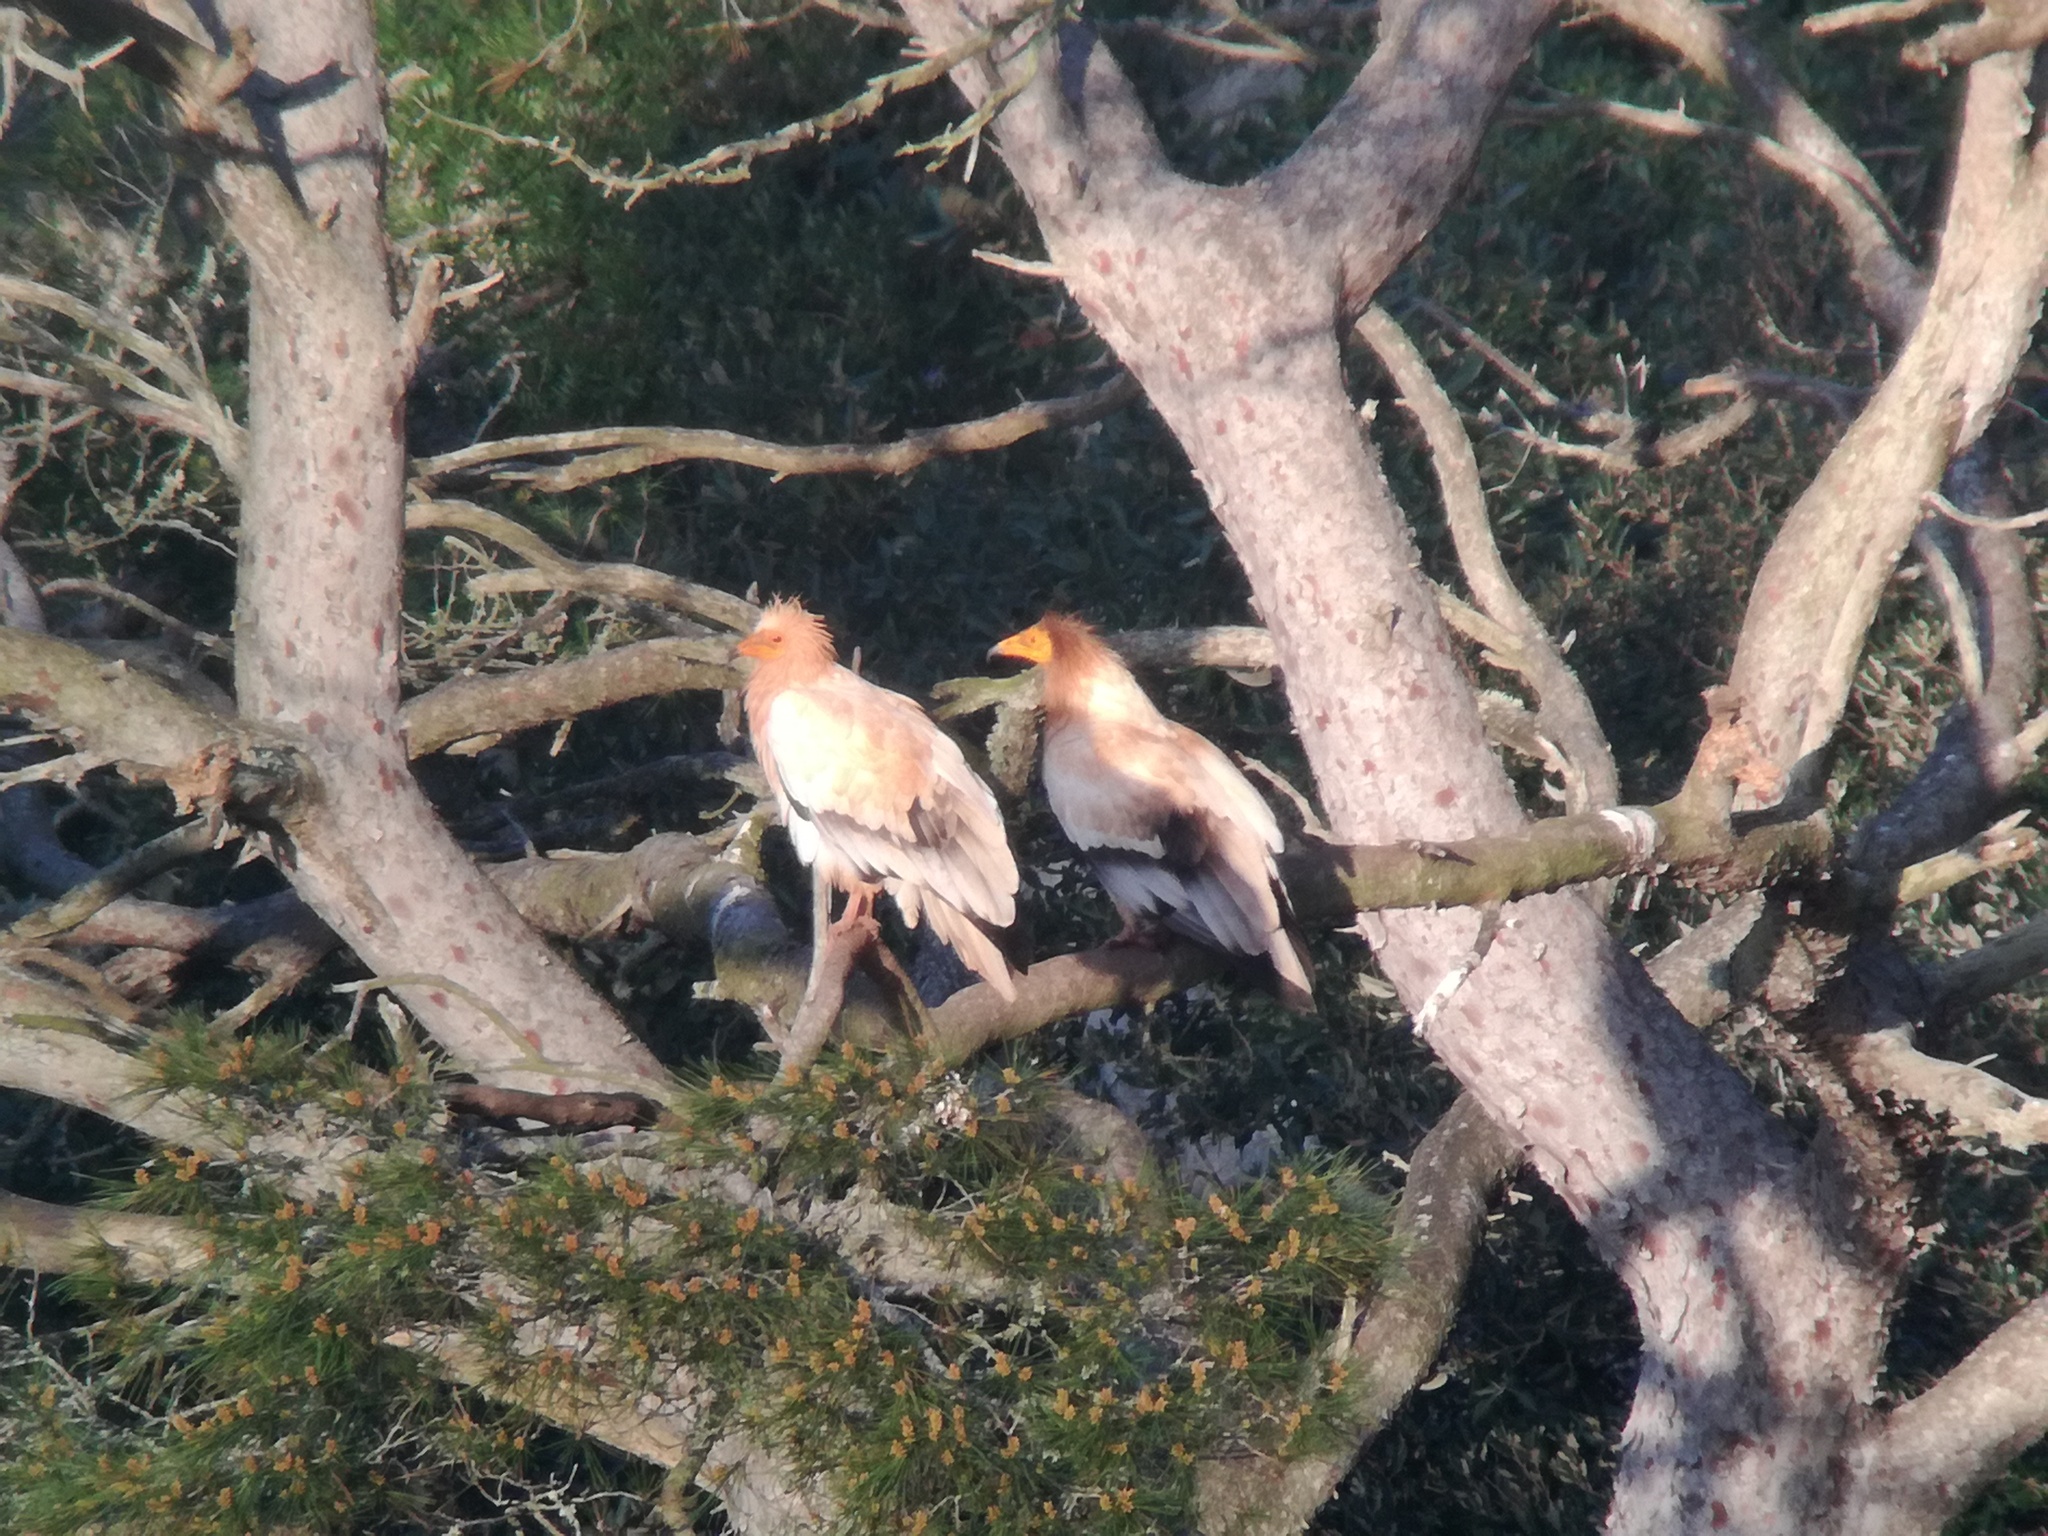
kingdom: Animalia
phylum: Chordata
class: Aves
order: Accipitriformes
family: Accipitridae
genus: Neophron
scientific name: Neophron percnopterus
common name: Egyptian vulture
